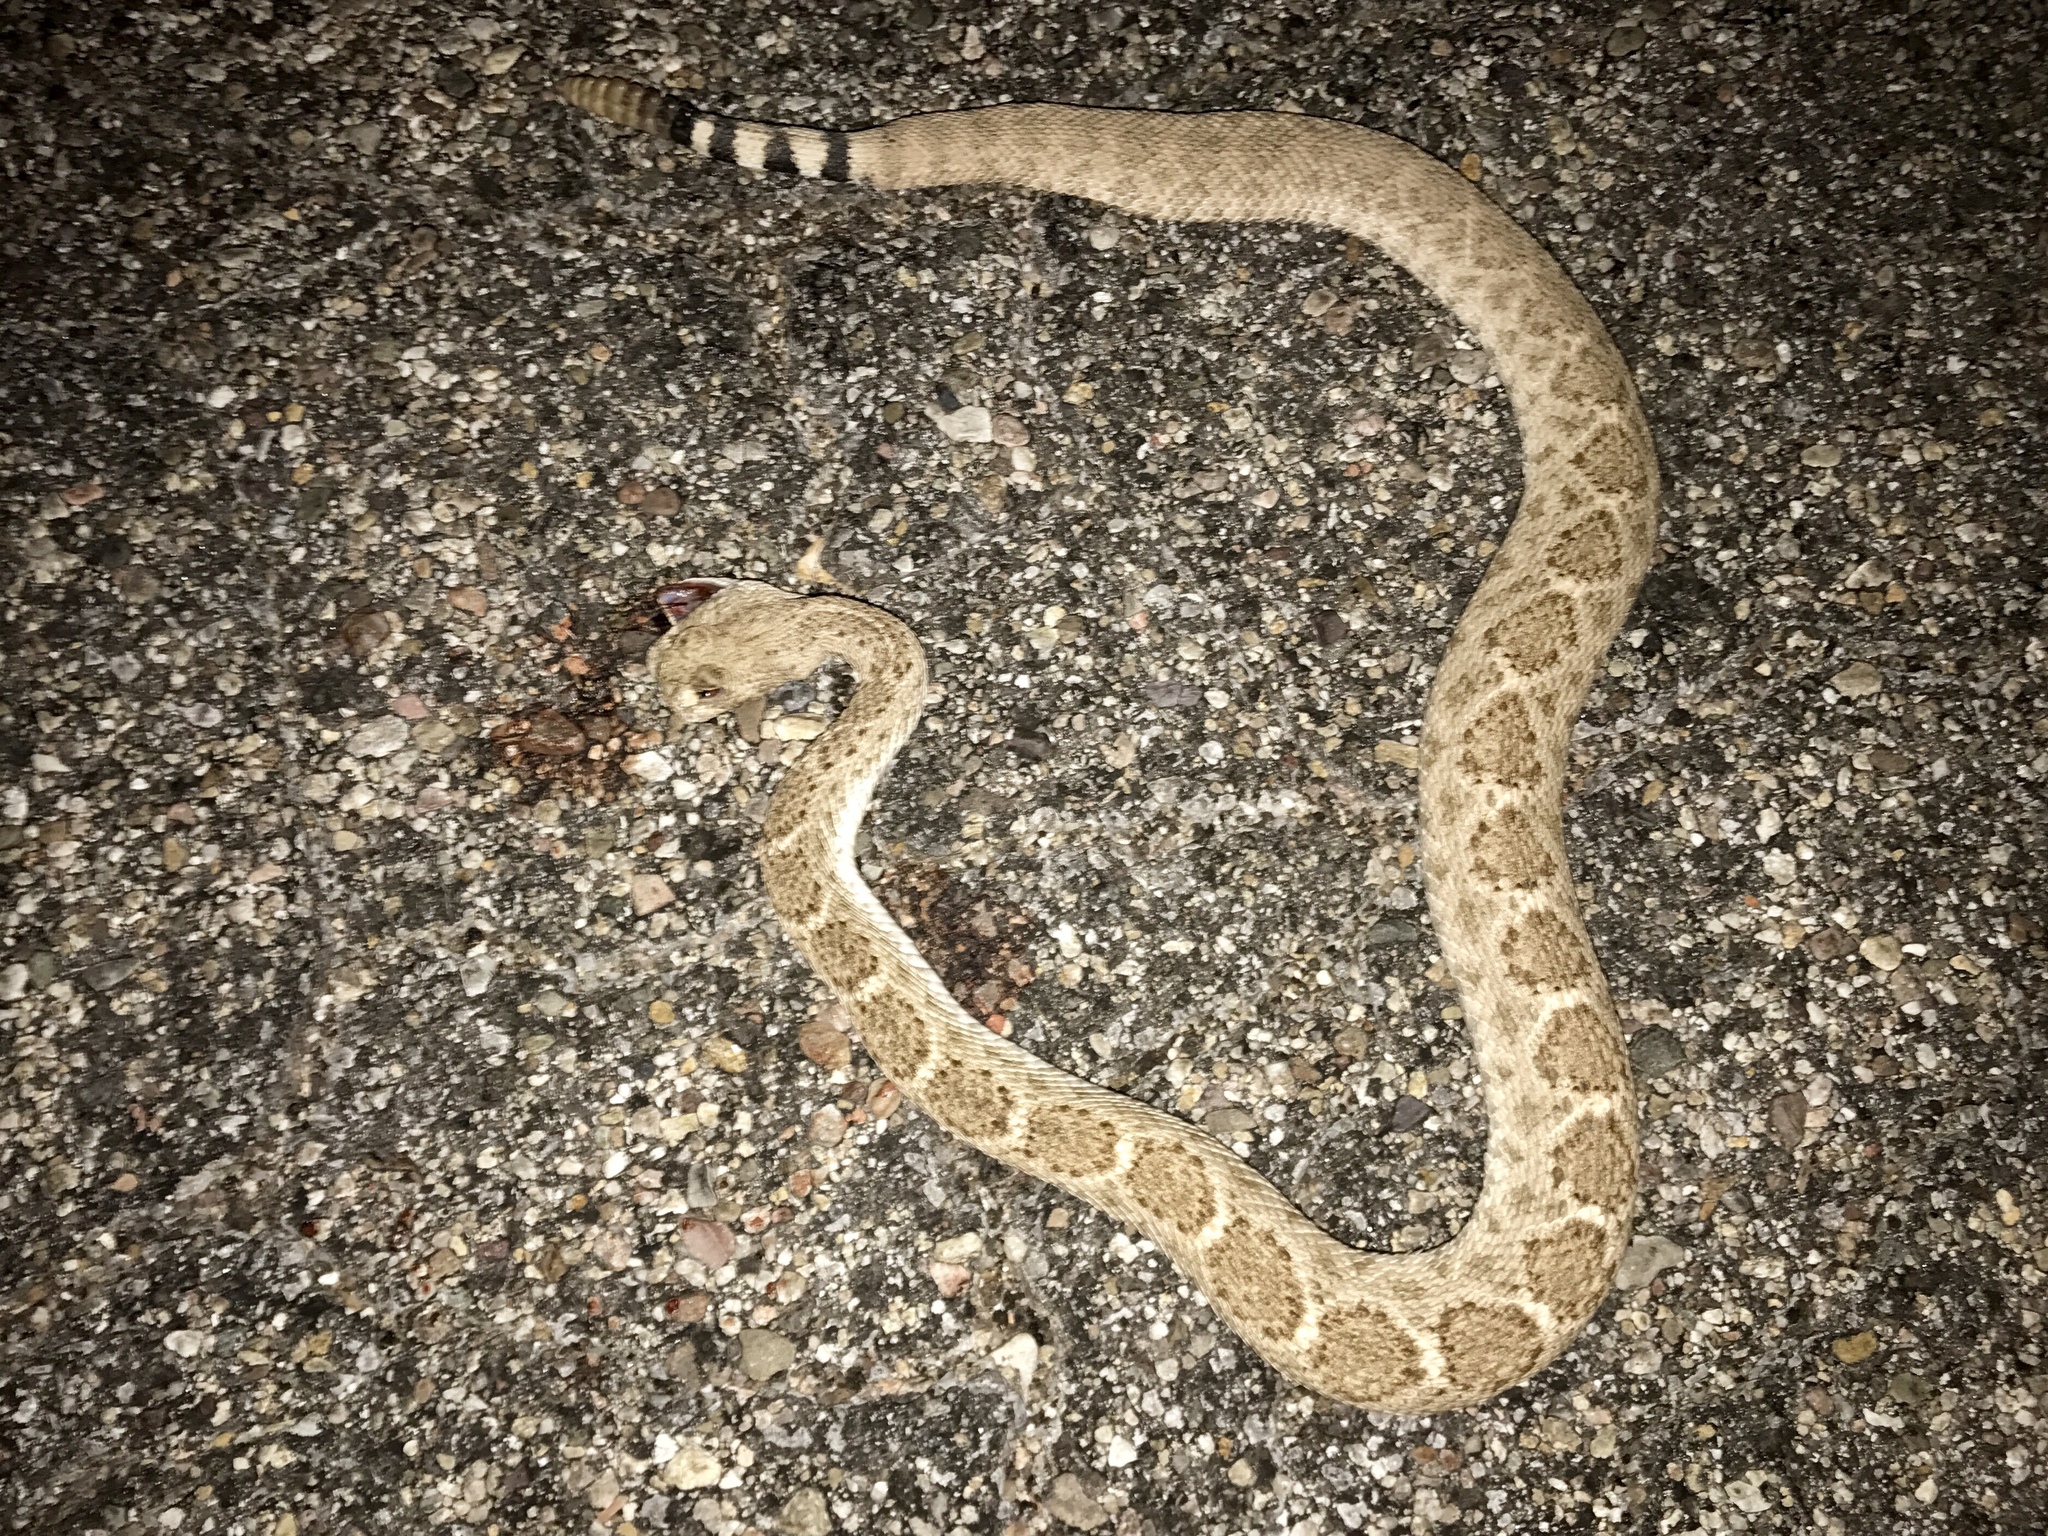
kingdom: Animalia
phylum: Chordata
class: Squamata
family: Viperidae
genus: Crotalus
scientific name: Crotalus atrox
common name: Western diamond-backed rattlesnake
